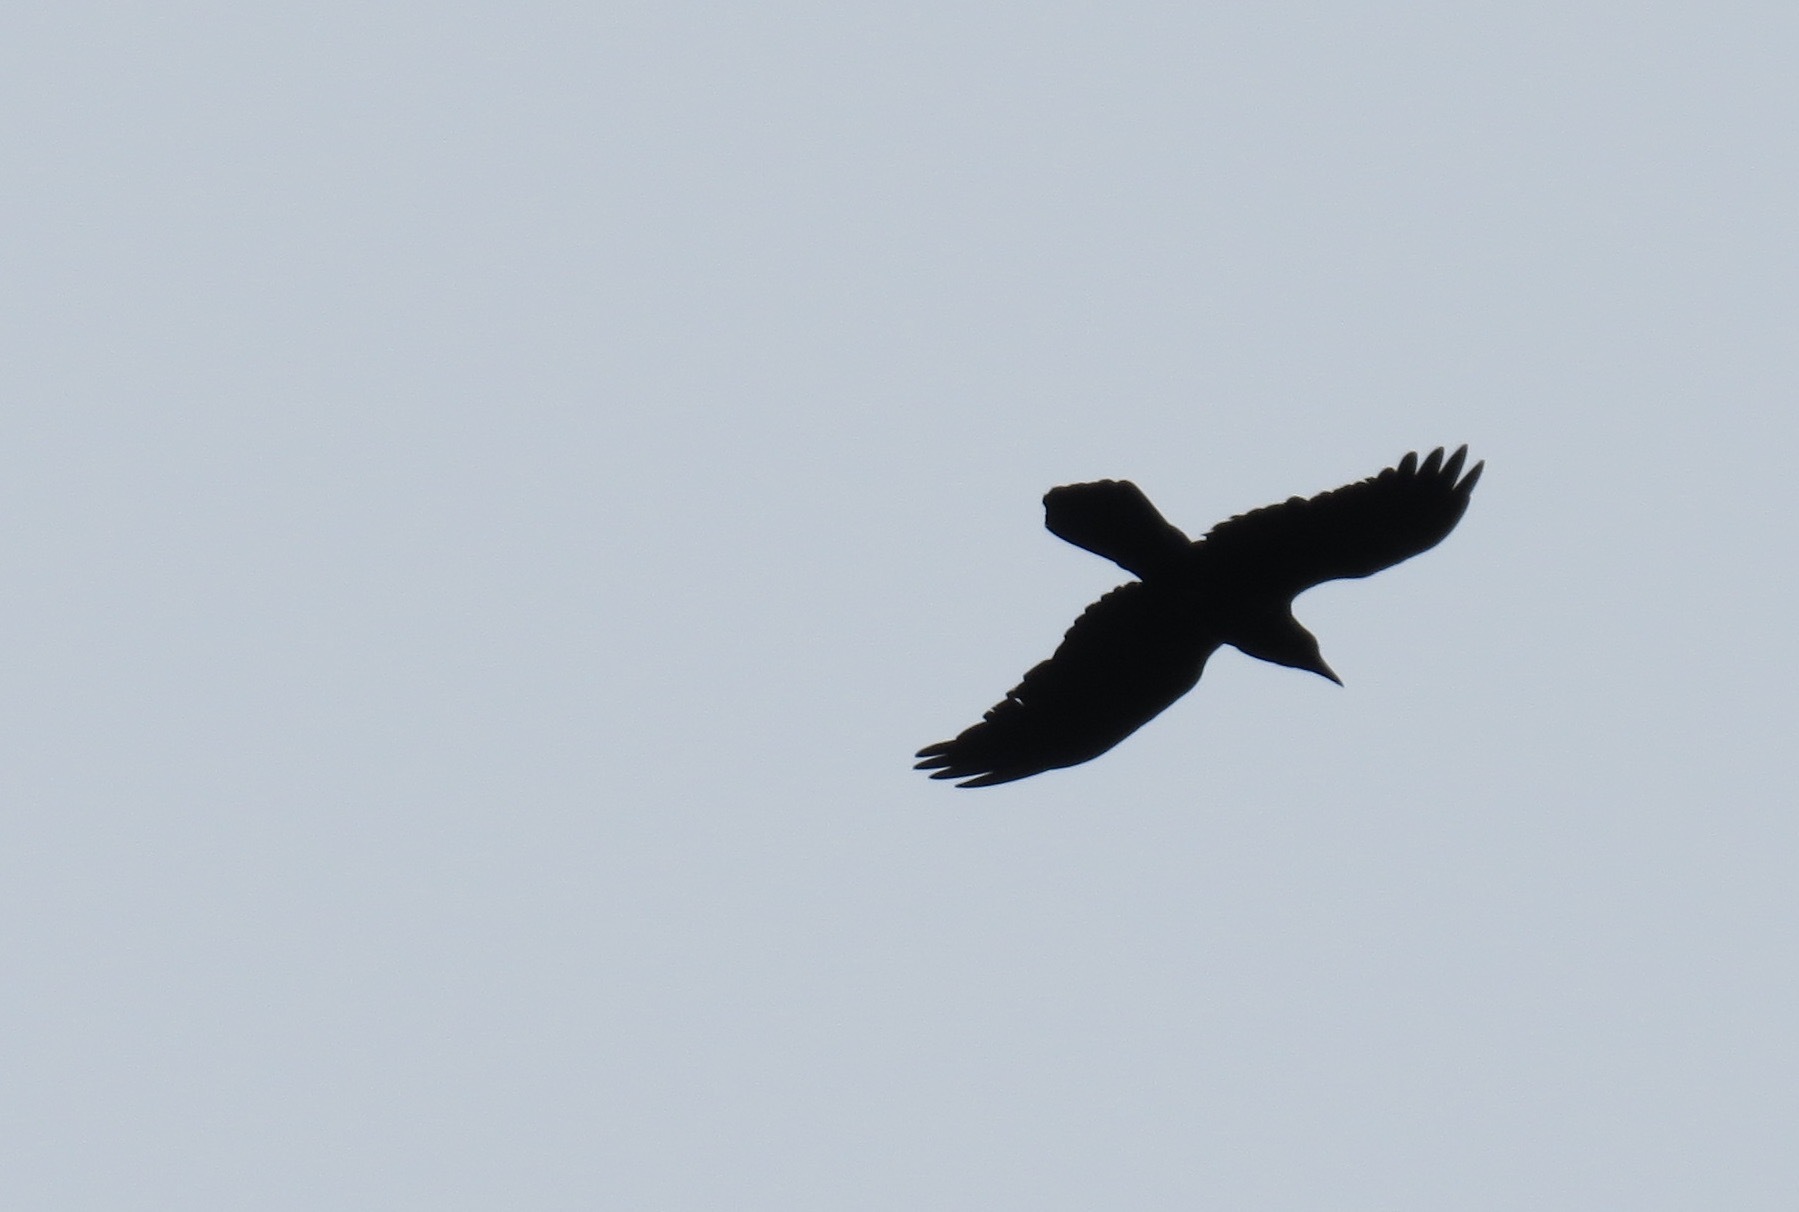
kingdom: Animalia
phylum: Chordata
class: Aves
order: Passeriformes
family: Corvidae
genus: Corvus
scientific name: Corvus corax
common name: Common raven
